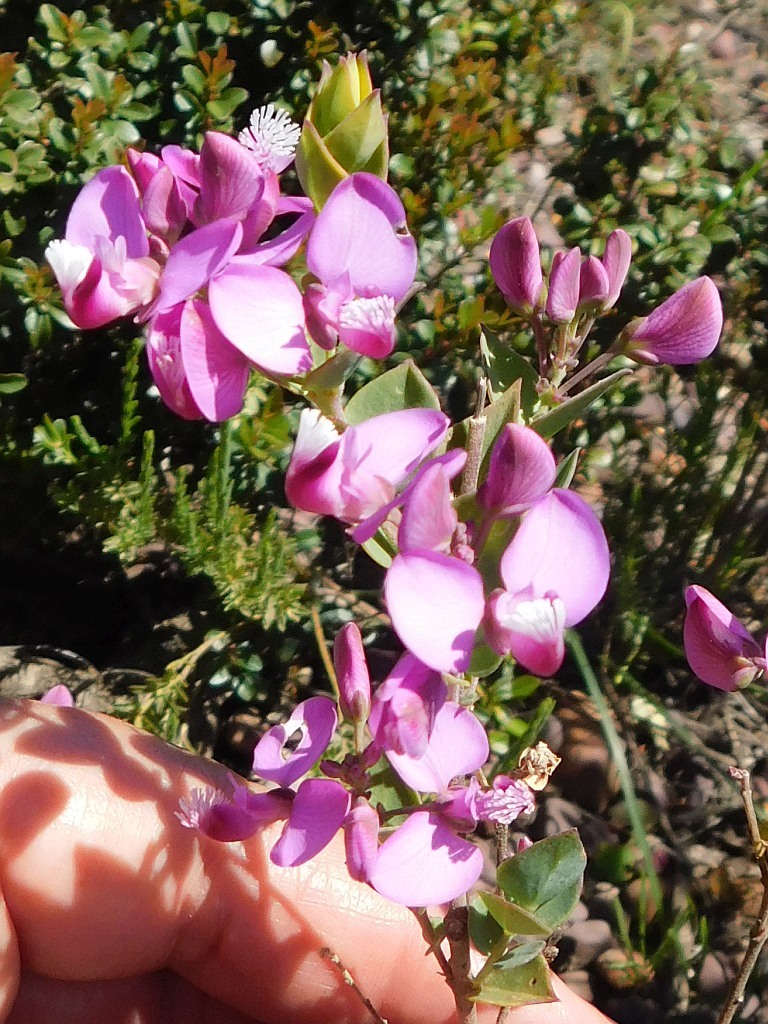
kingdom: Plantae
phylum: Tracheophyta
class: Magnoliopsida
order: Fabales
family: Polygalaceae
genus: Polygala
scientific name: Polygala fruticosa
